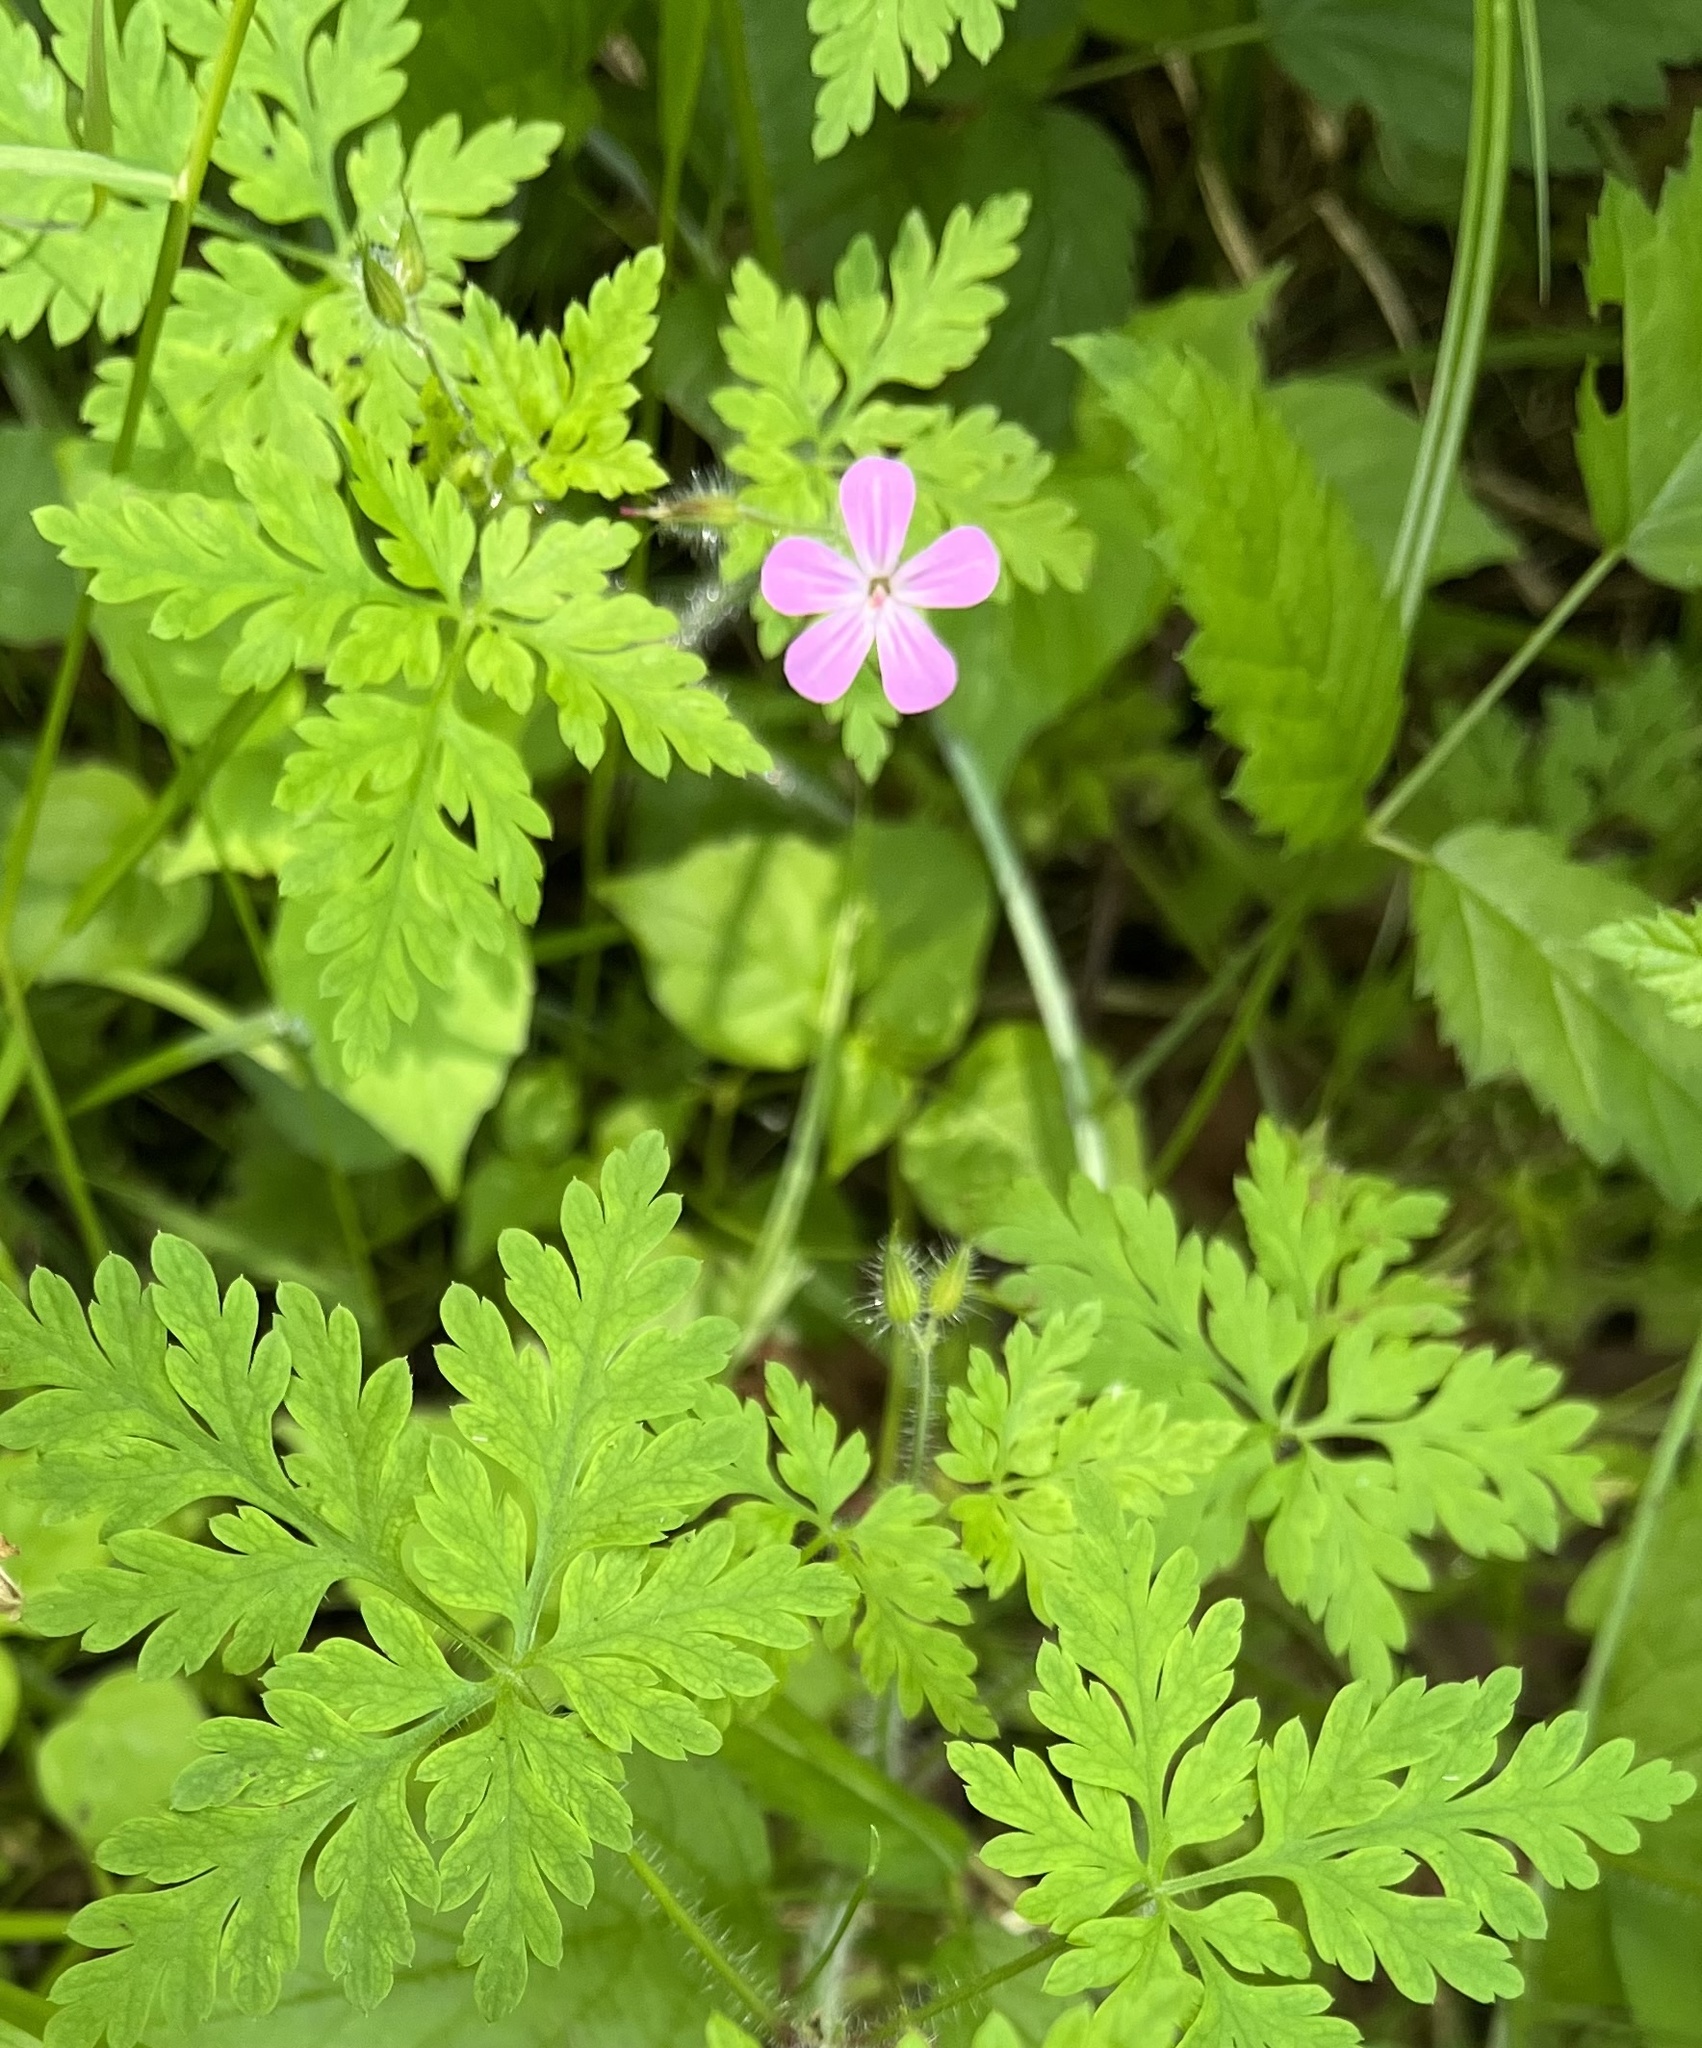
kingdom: Plantae
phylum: Tracheophyta
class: Magnoliopsida
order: Geraniales
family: Geraniaceae
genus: Geranium
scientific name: Geranium robertianum
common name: Herb-robert
